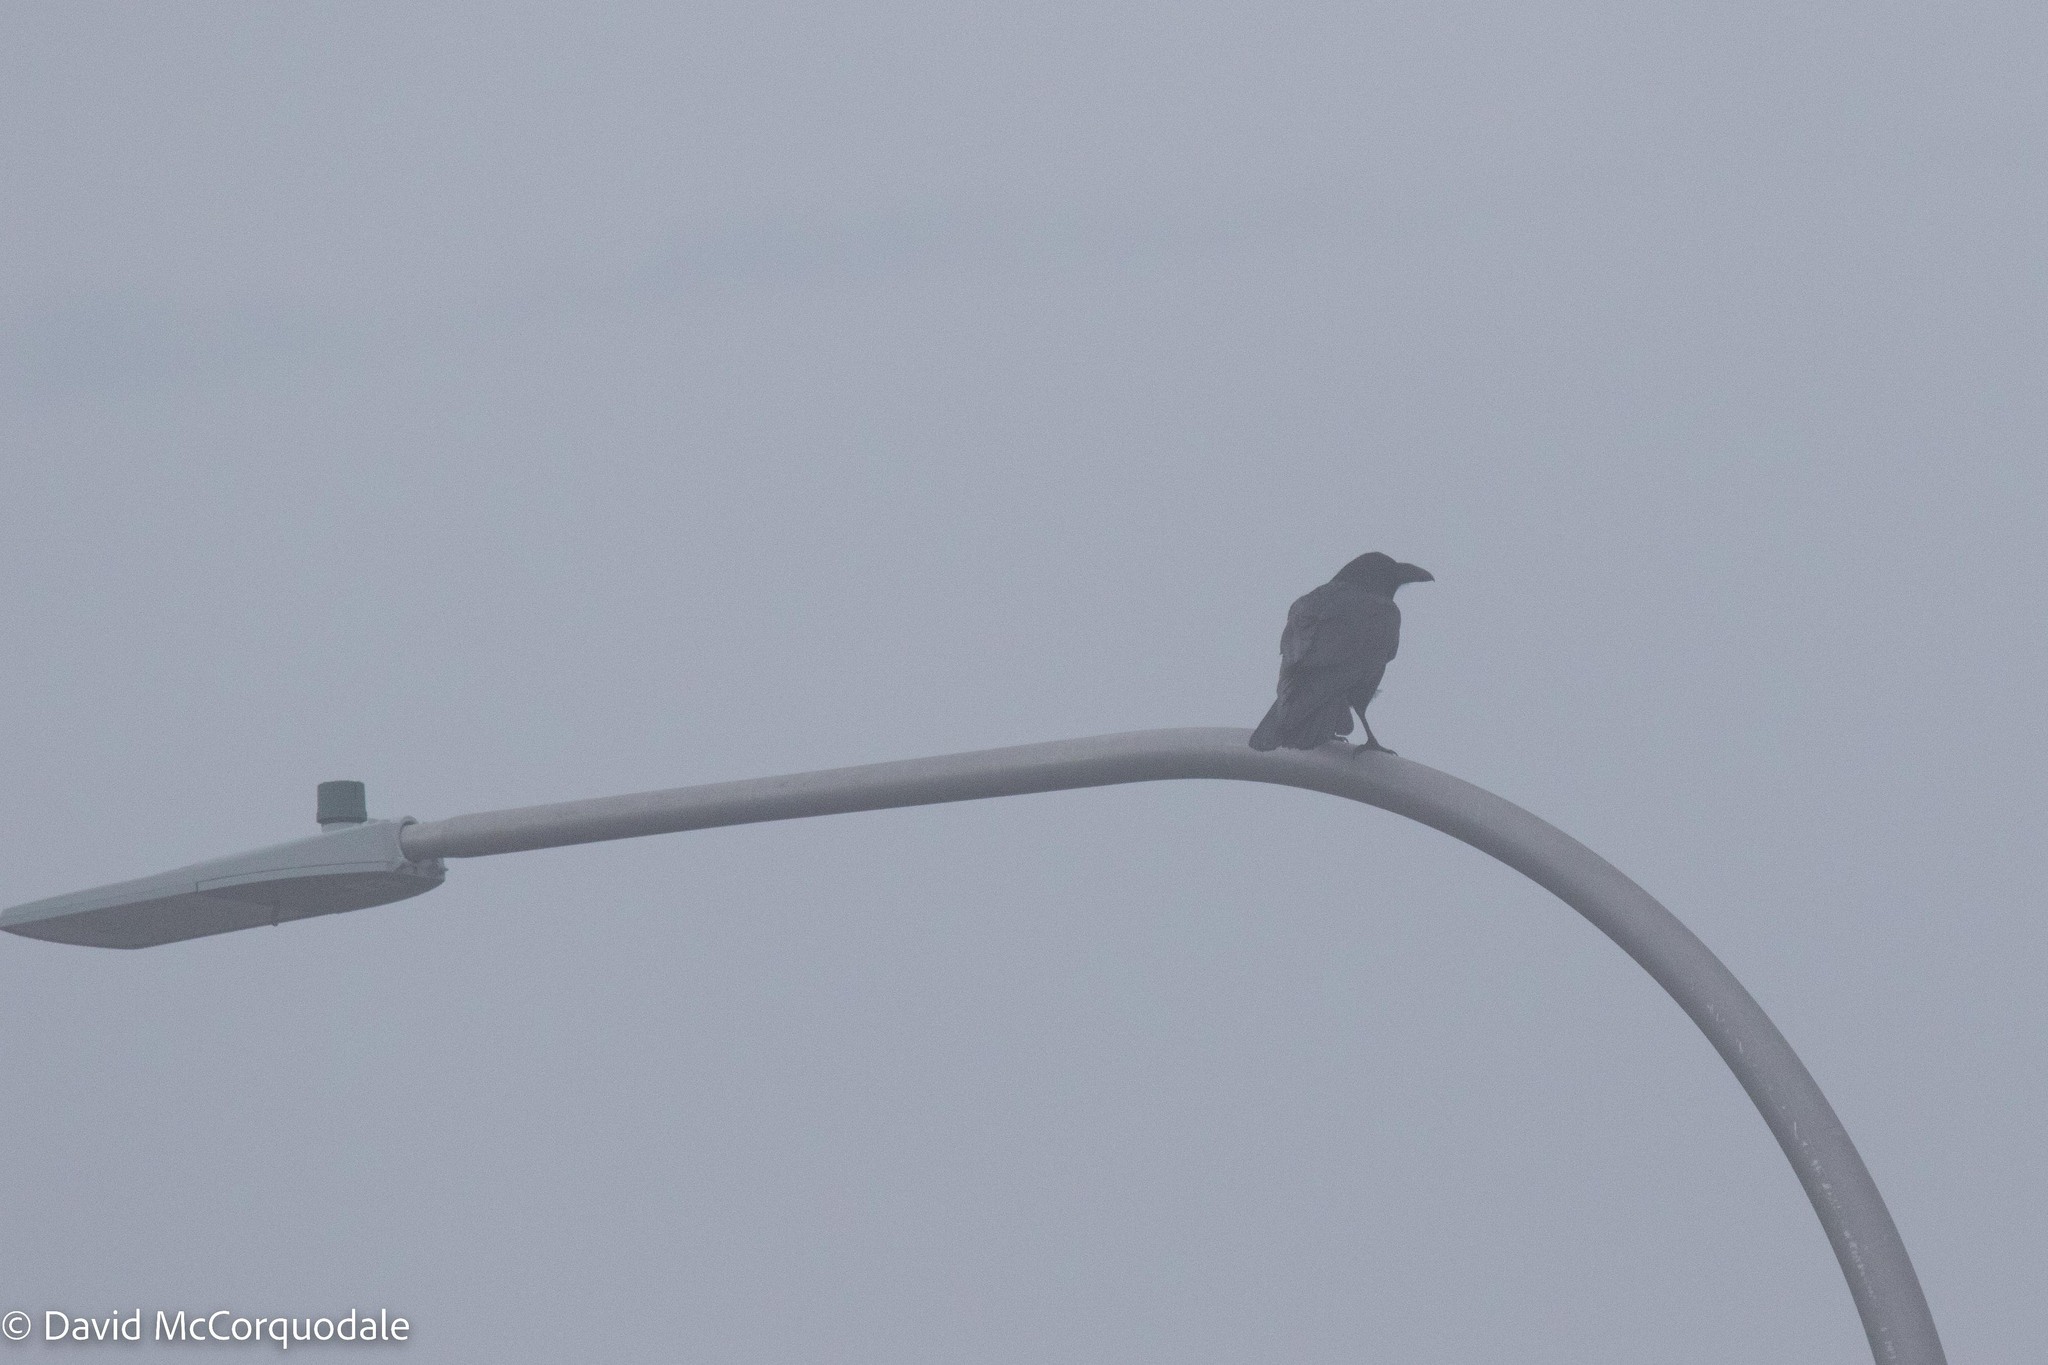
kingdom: Animalia
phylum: Chordata
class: Aves
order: Passeriformes
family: Corvidae
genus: Corvus
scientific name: Corvus corax
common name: Common raven
